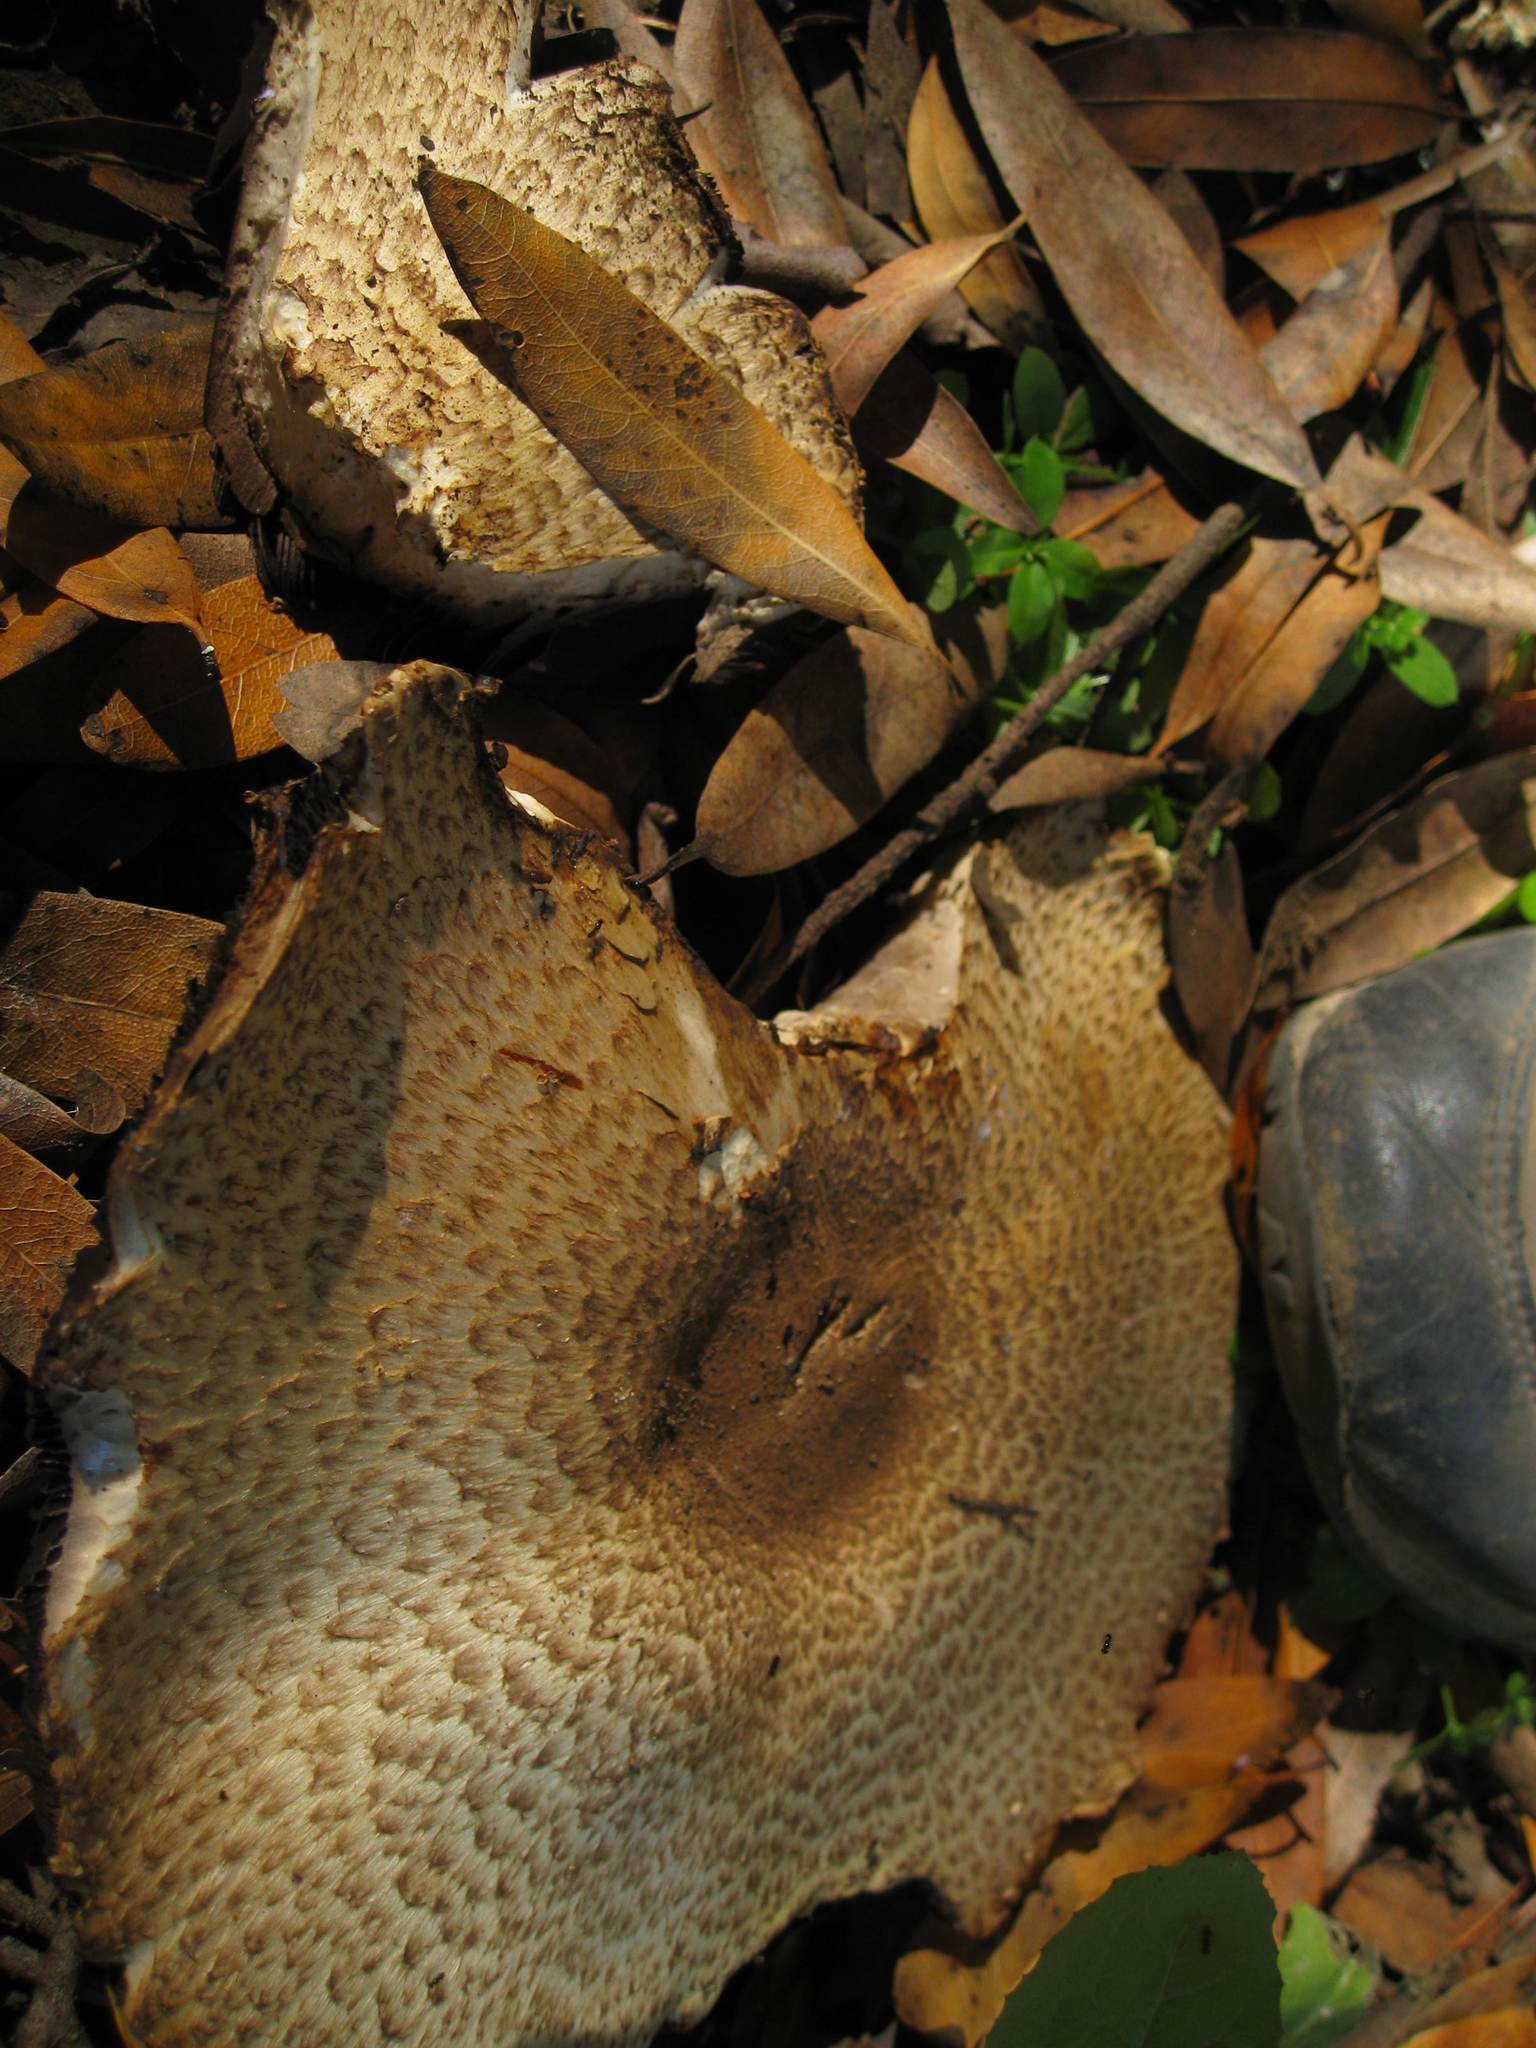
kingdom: Fungi
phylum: Basidiomycota
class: Agaricomycetes
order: Agaricales
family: Agaricaceae
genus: Agaricus
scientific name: Agaricus augustus
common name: Prince
